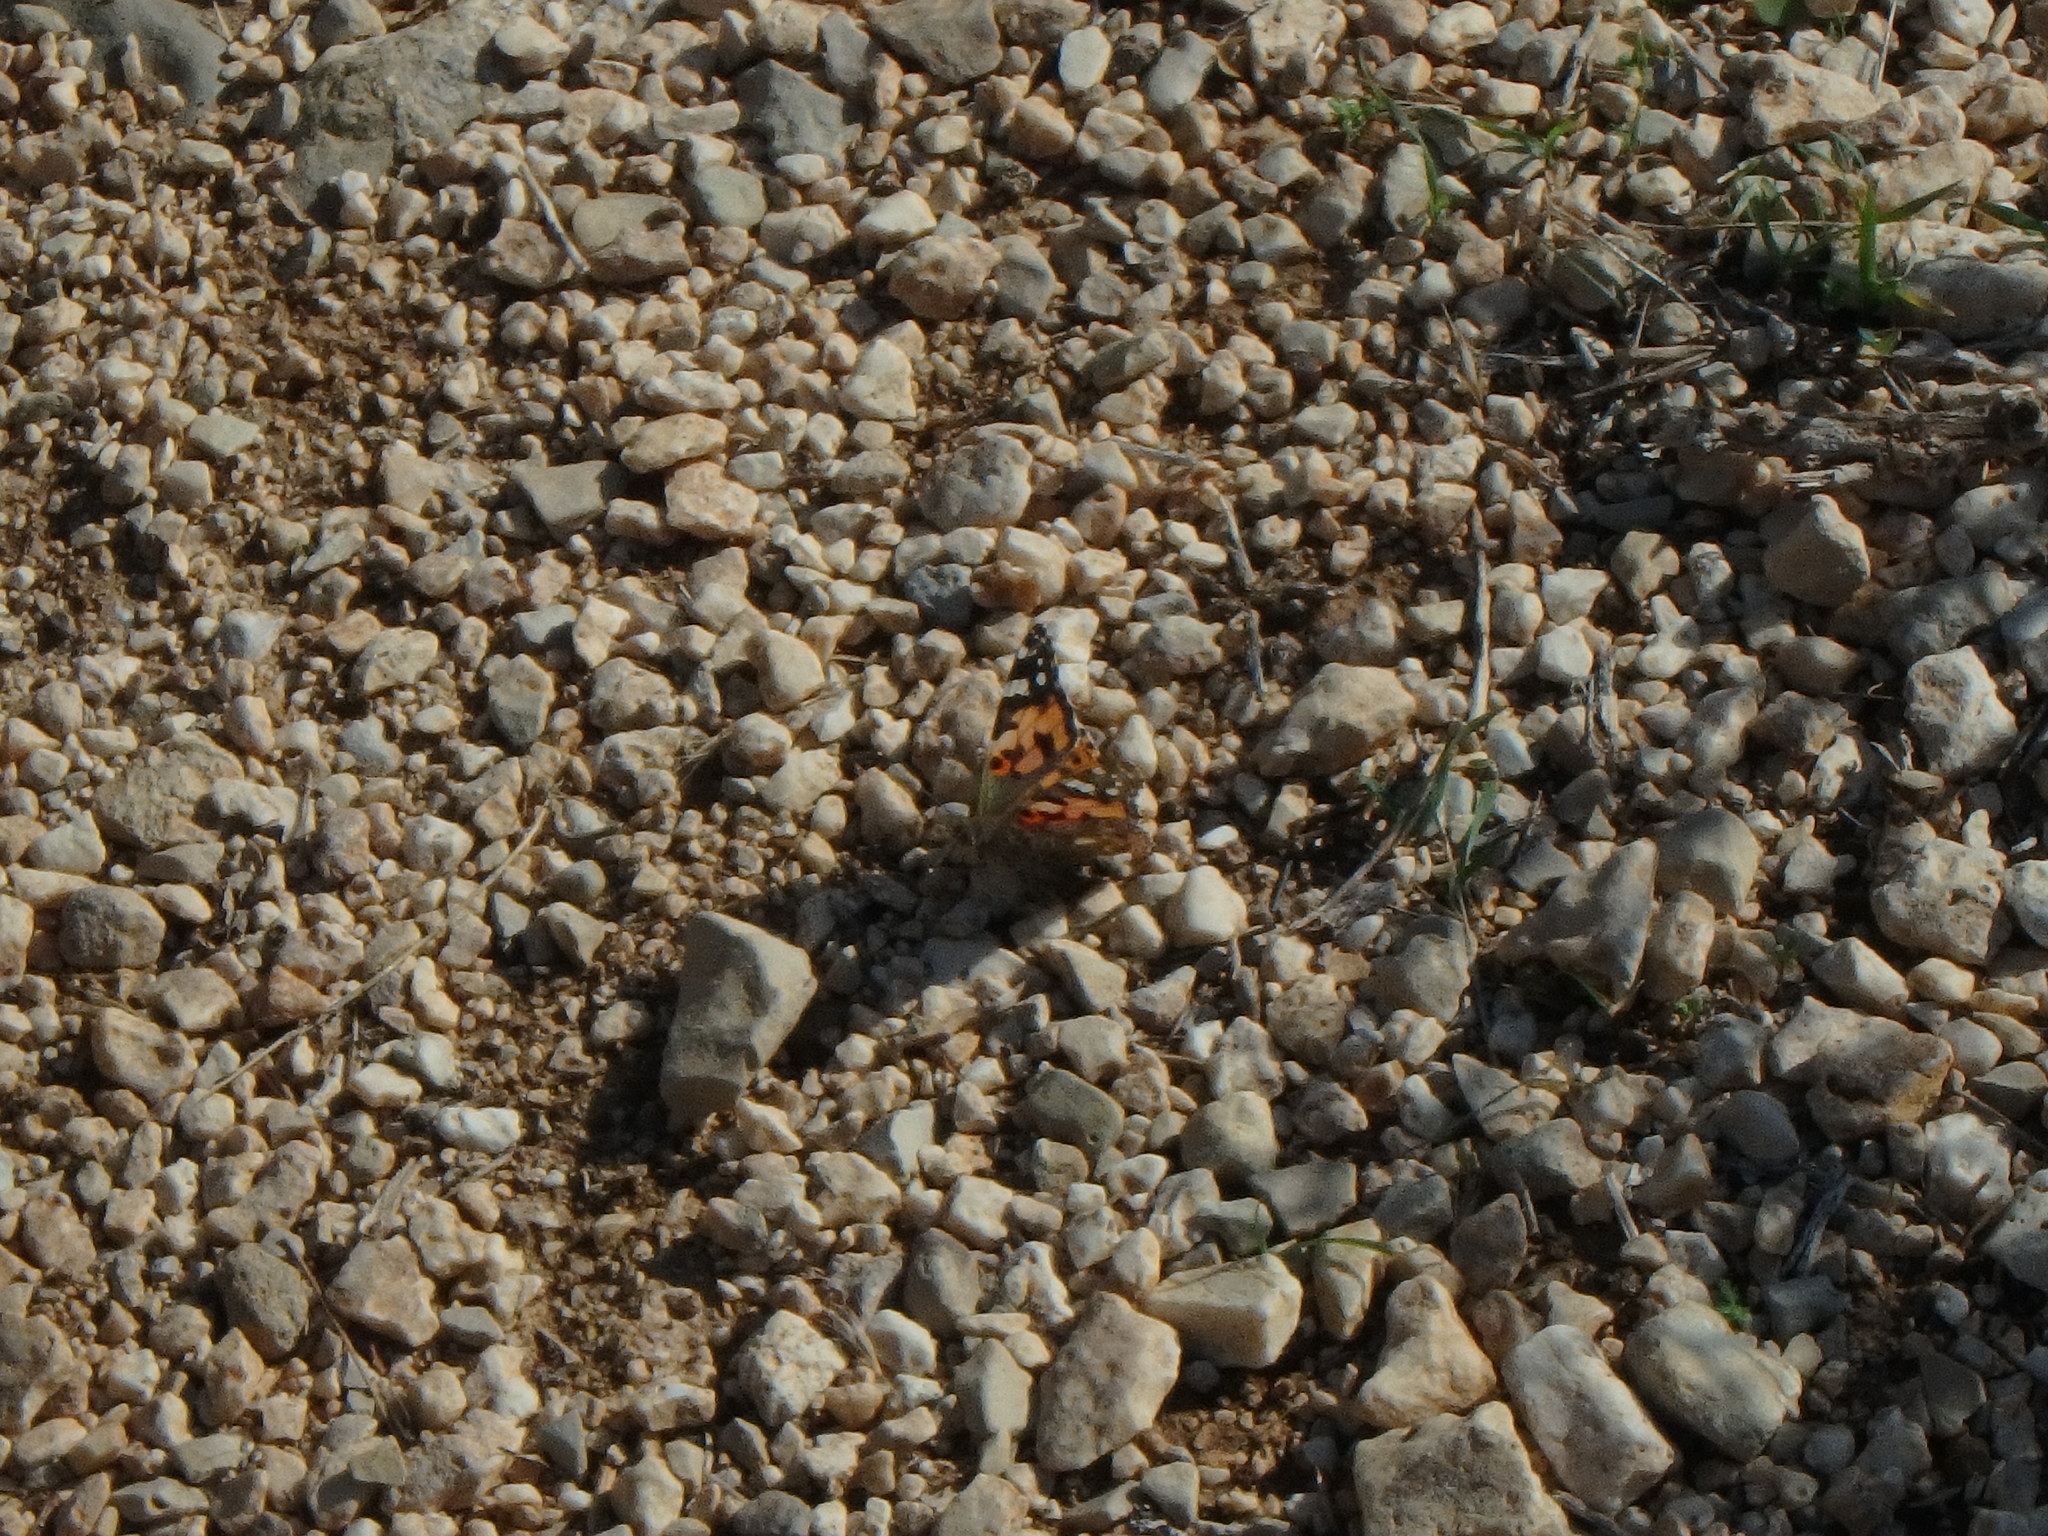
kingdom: Animalia
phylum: Arthropoda
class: Insecta
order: Lepidoptera
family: Nymphalidae
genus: Vanessa
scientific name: Vanessa cardui
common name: Painted lady
